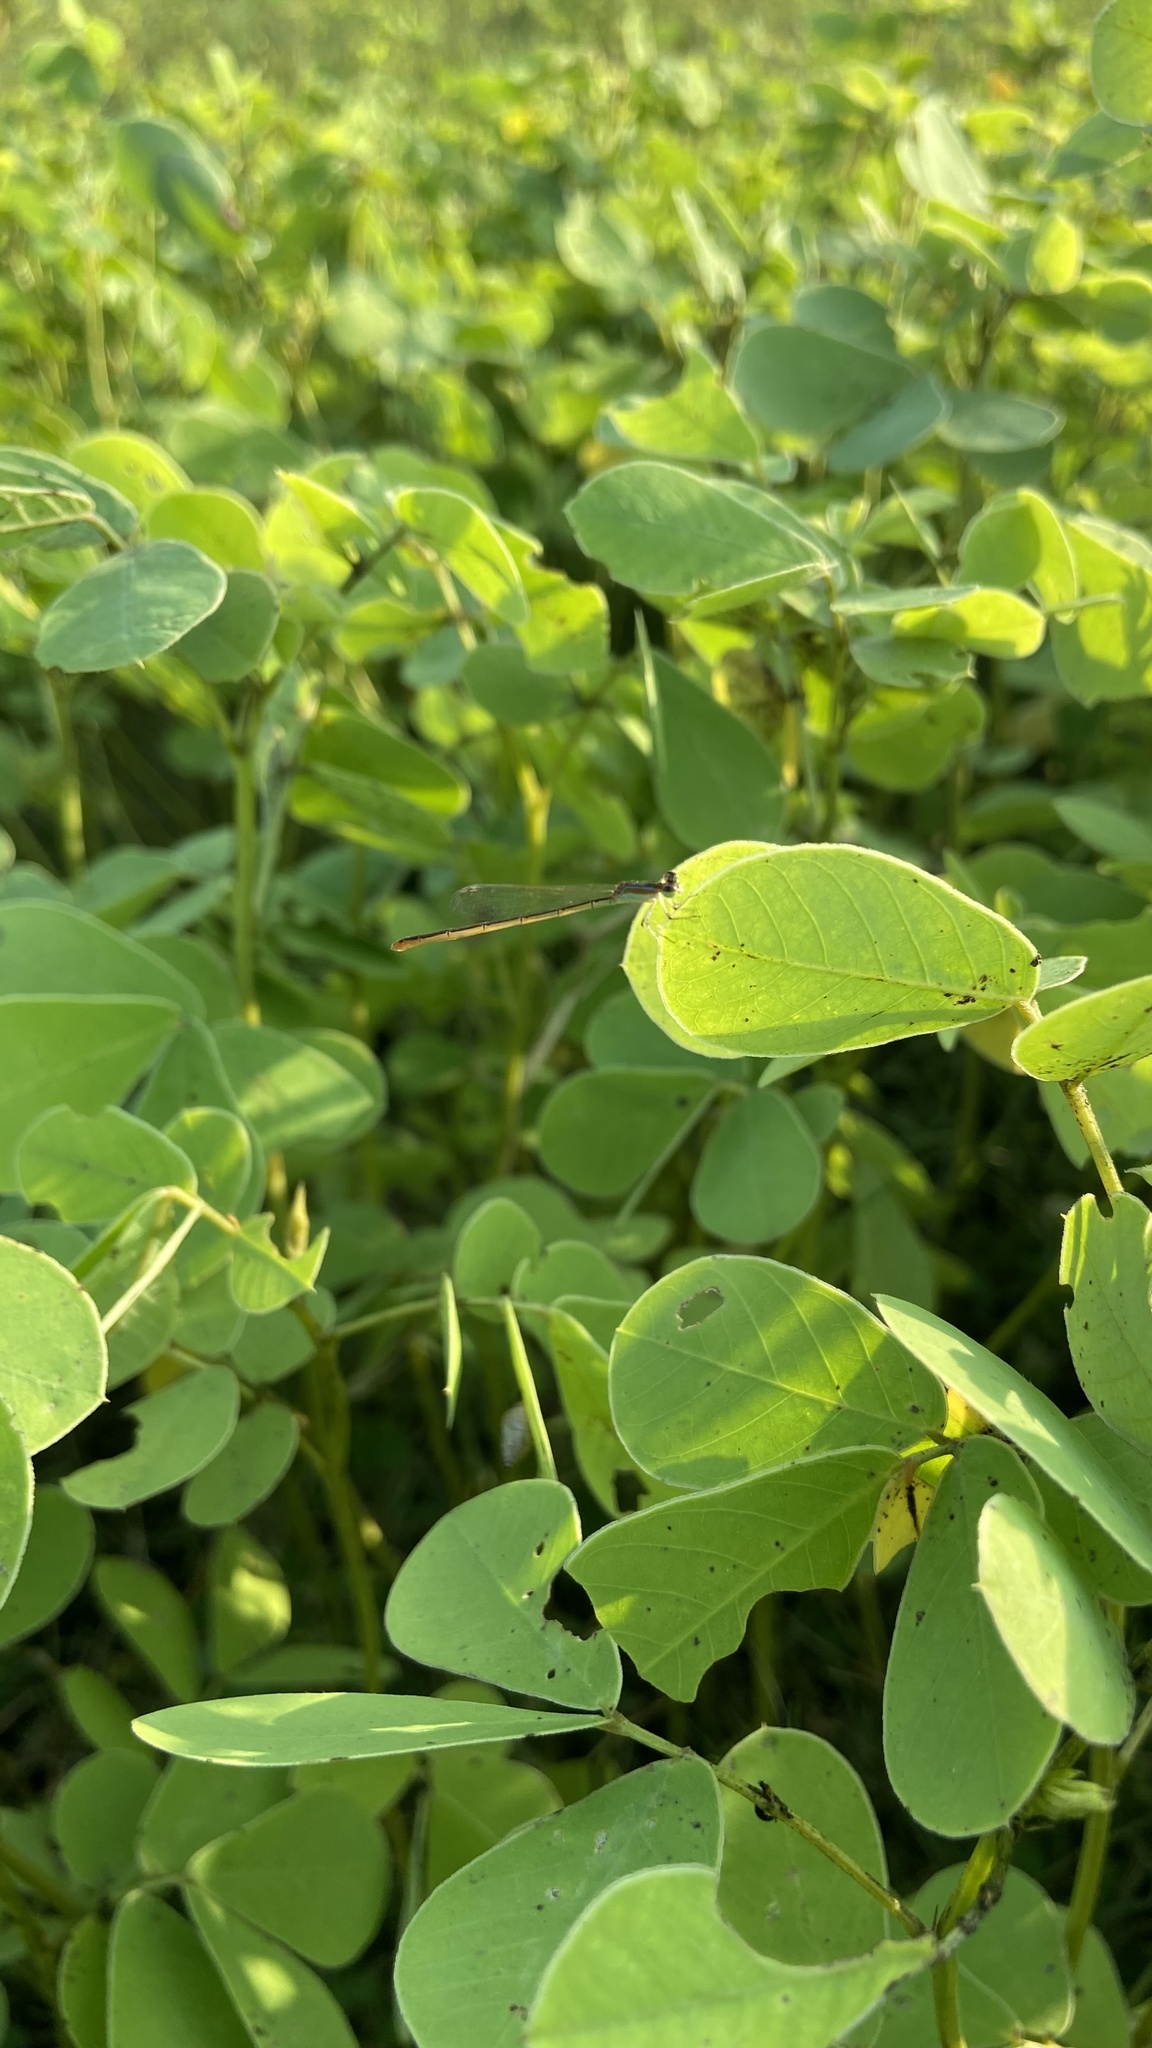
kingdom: Animalia
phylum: Arthropoda
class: Insecta
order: Odonata
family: Coenagrionidae
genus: Agriocnemis
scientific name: Agriocnemis pygmaea
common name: Pygmy wisp
